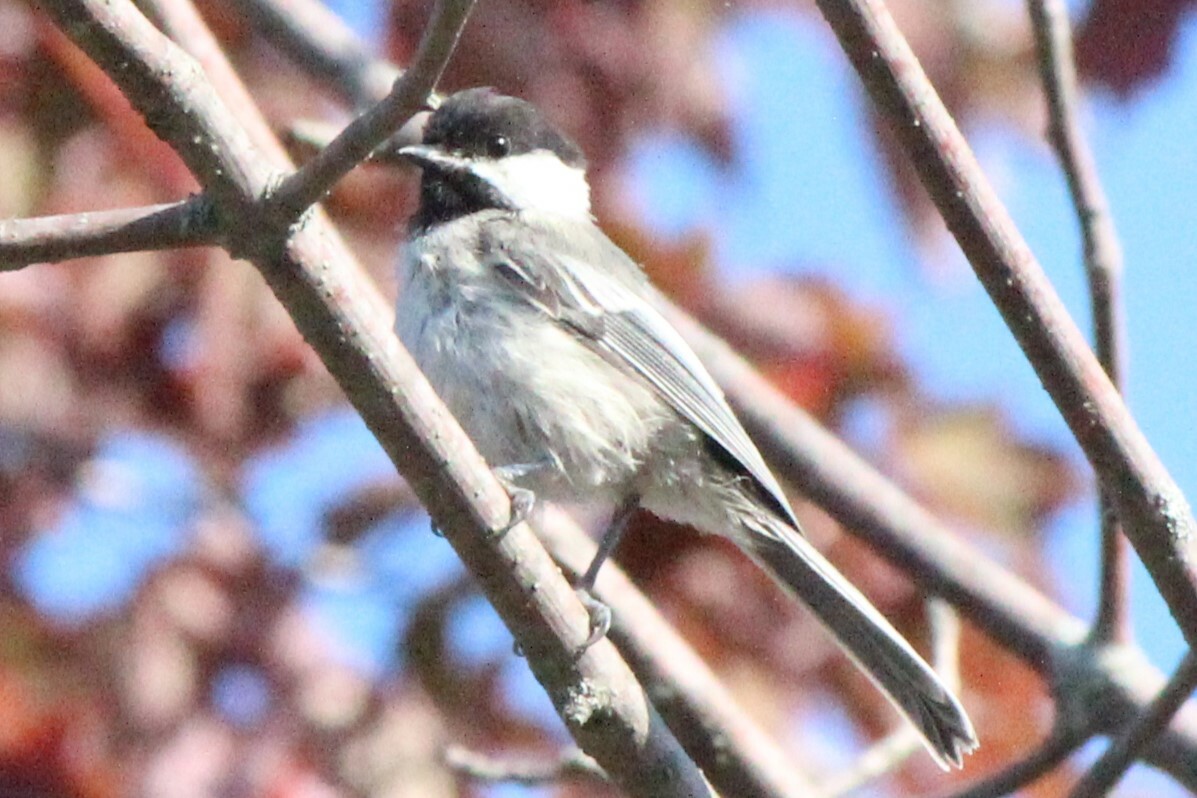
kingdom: Animalia
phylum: Chordata
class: Aves
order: Passeriformes
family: Paridae
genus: Poecile
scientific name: Poecile atricapillus
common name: Black-capped chickadee
